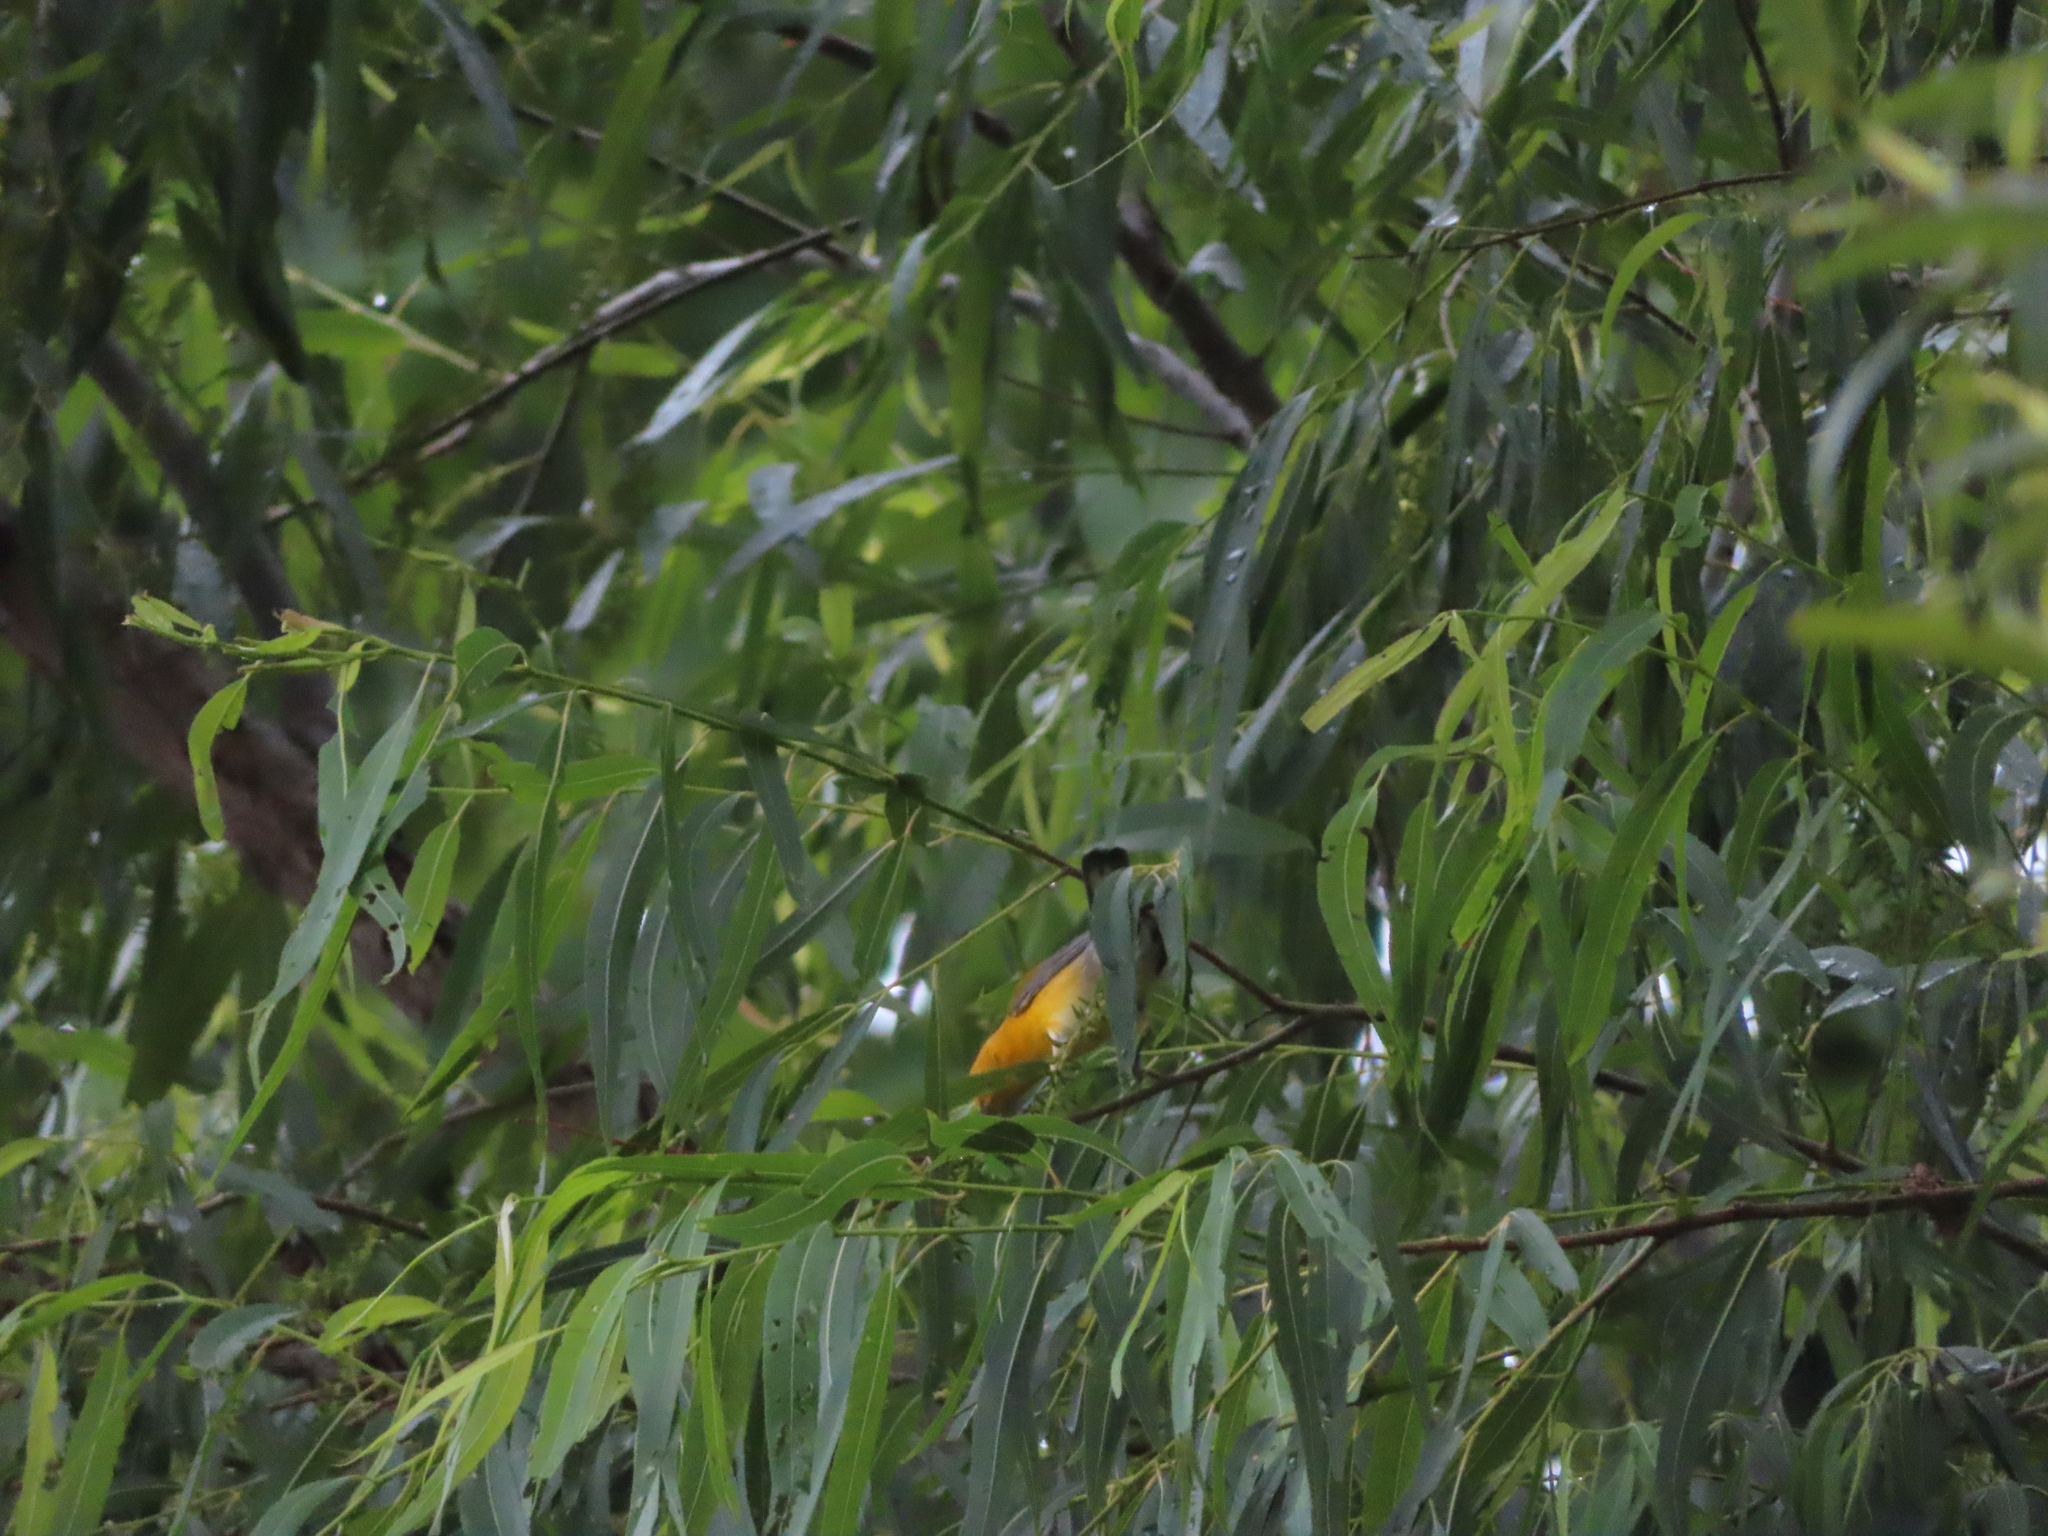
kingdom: Animalia
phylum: Chordata
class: Aves
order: Passeriformes
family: Parulidae
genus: Protonotaria
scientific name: Protonotaria citrea
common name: Prothonotary warbler
